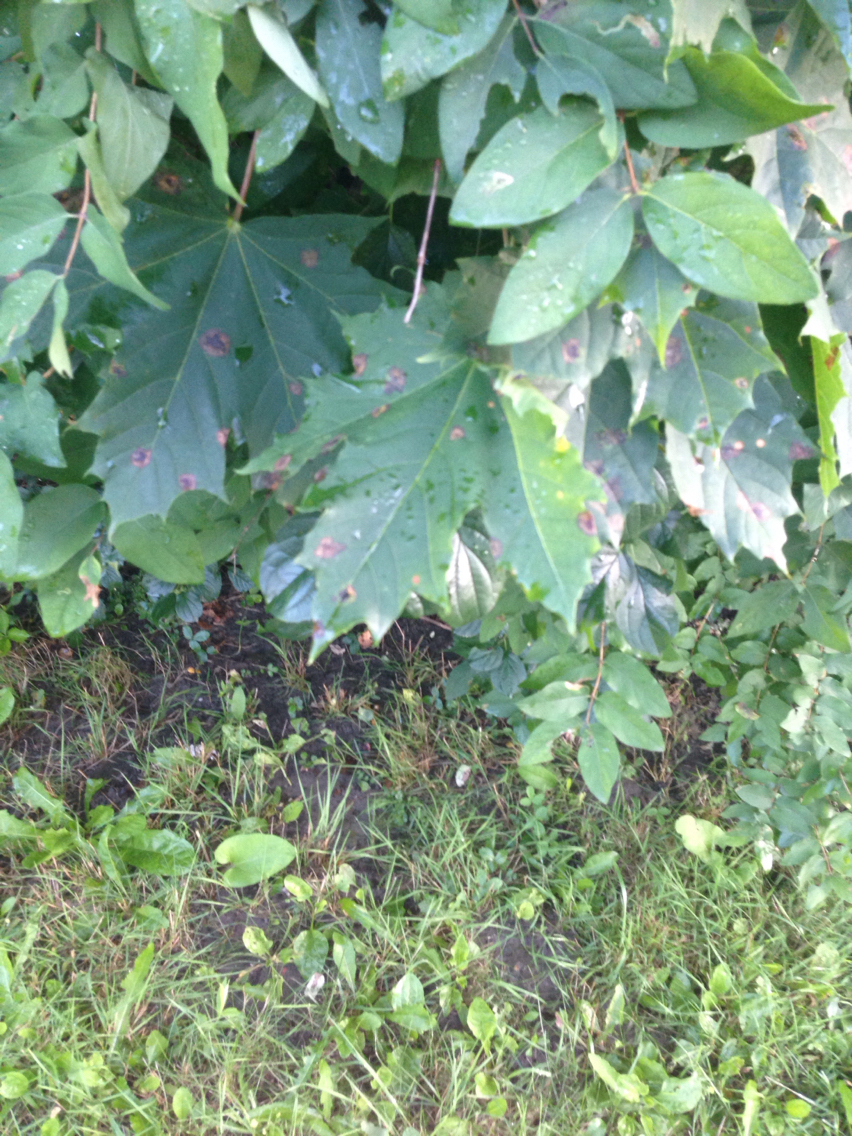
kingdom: Plantae
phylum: Tracheophyta
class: Magnoliopsida
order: Sapindales
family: Sapindaceae
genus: Acer
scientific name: Acer platanoides
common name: Norway maple
